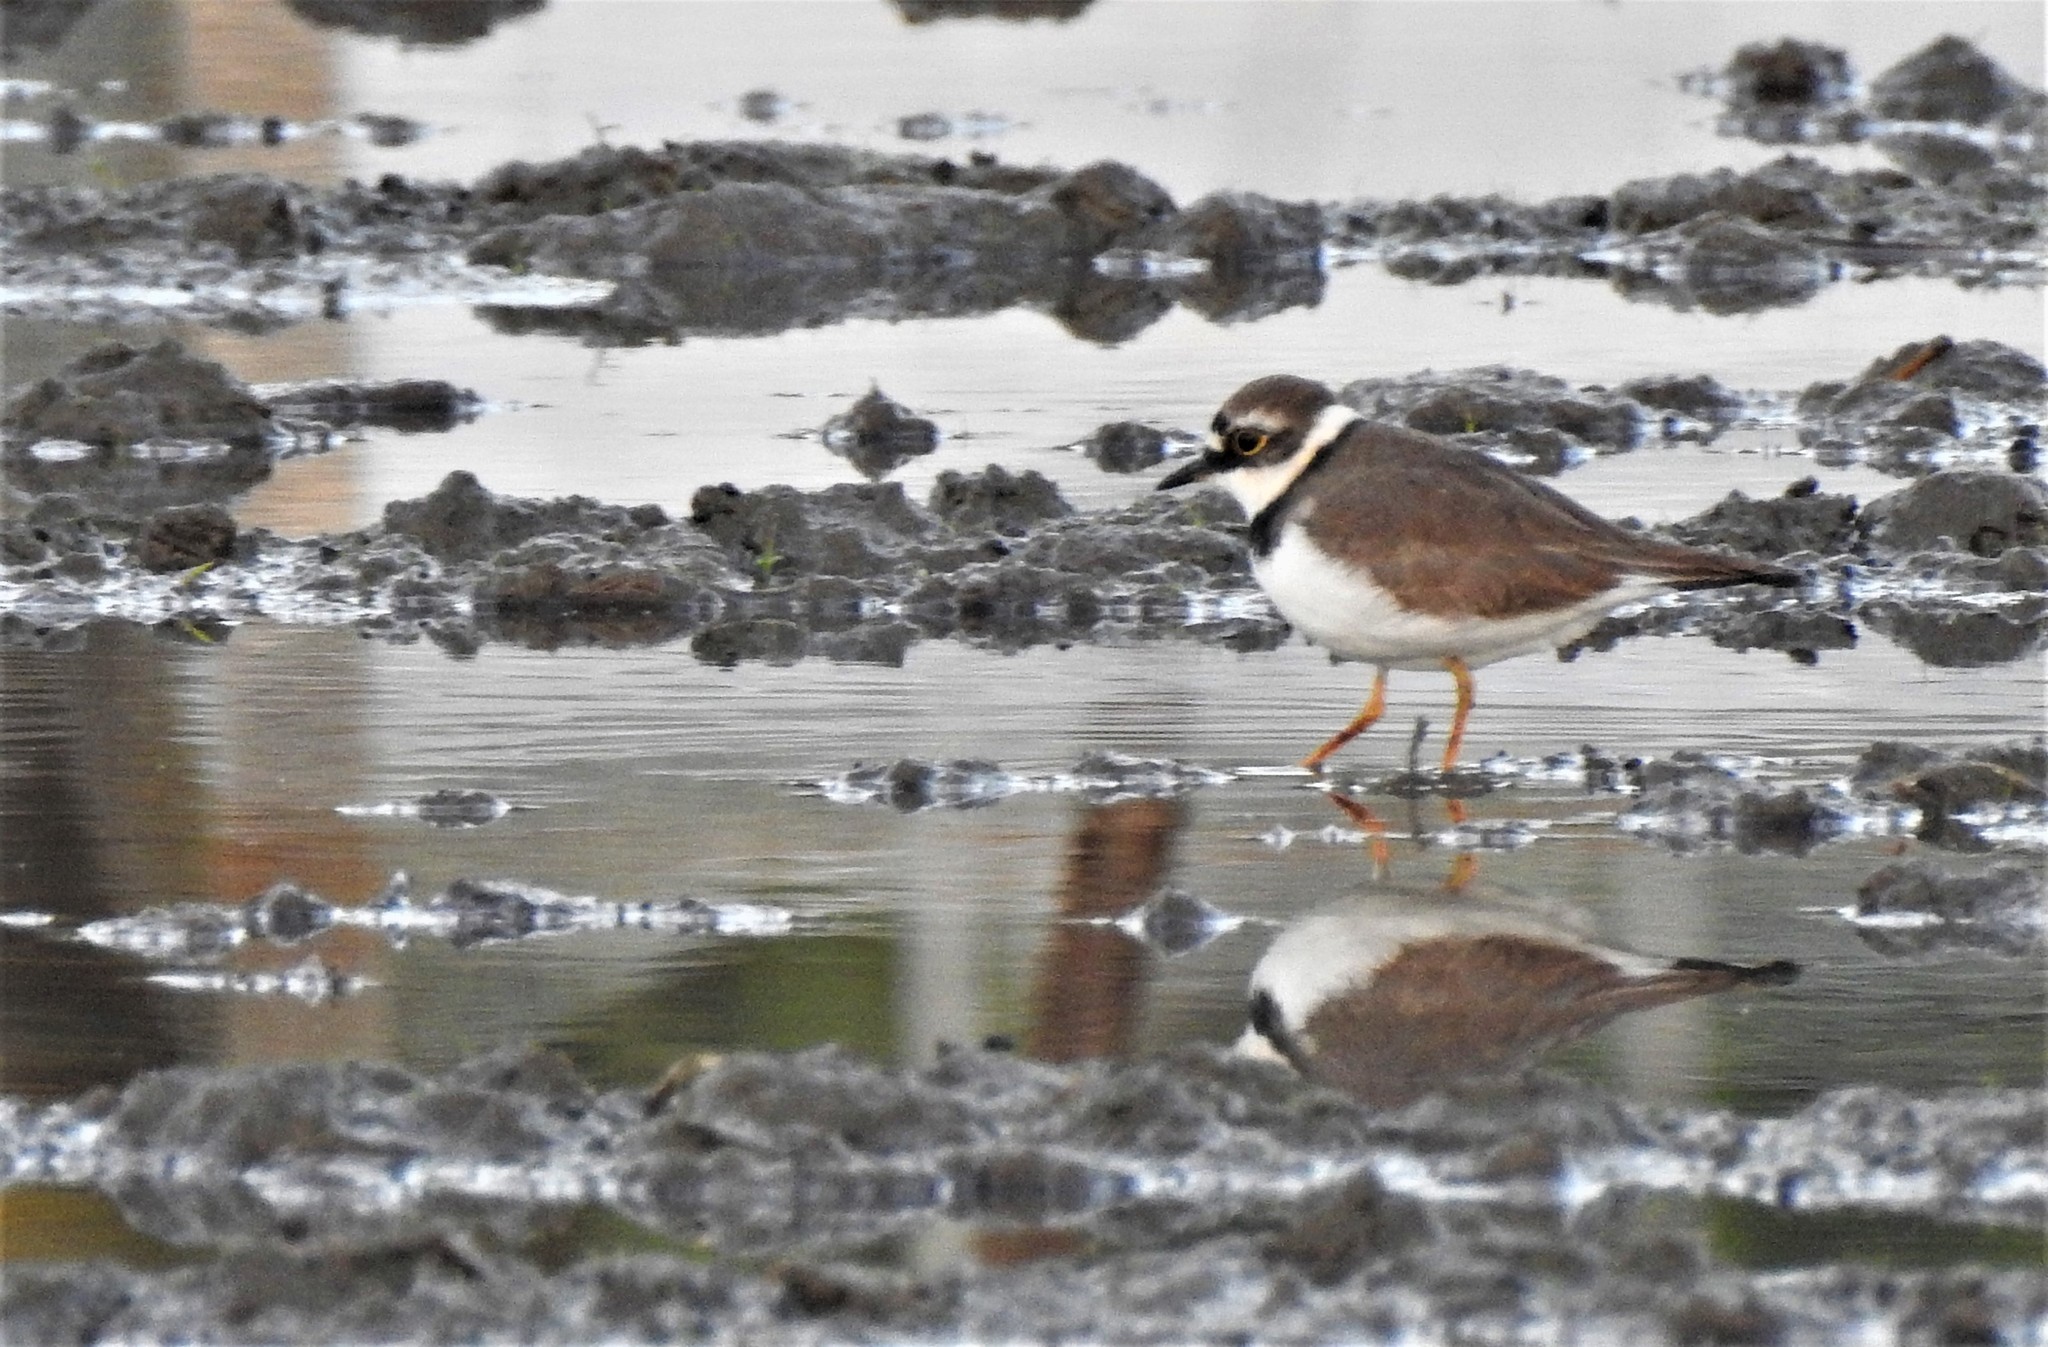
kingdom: Animalia
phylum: Chordata
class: Aves
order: Charadriiformes
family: Charadriidae
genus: Charadrius
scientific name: Charadrius dubius
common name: Little ringed plover
